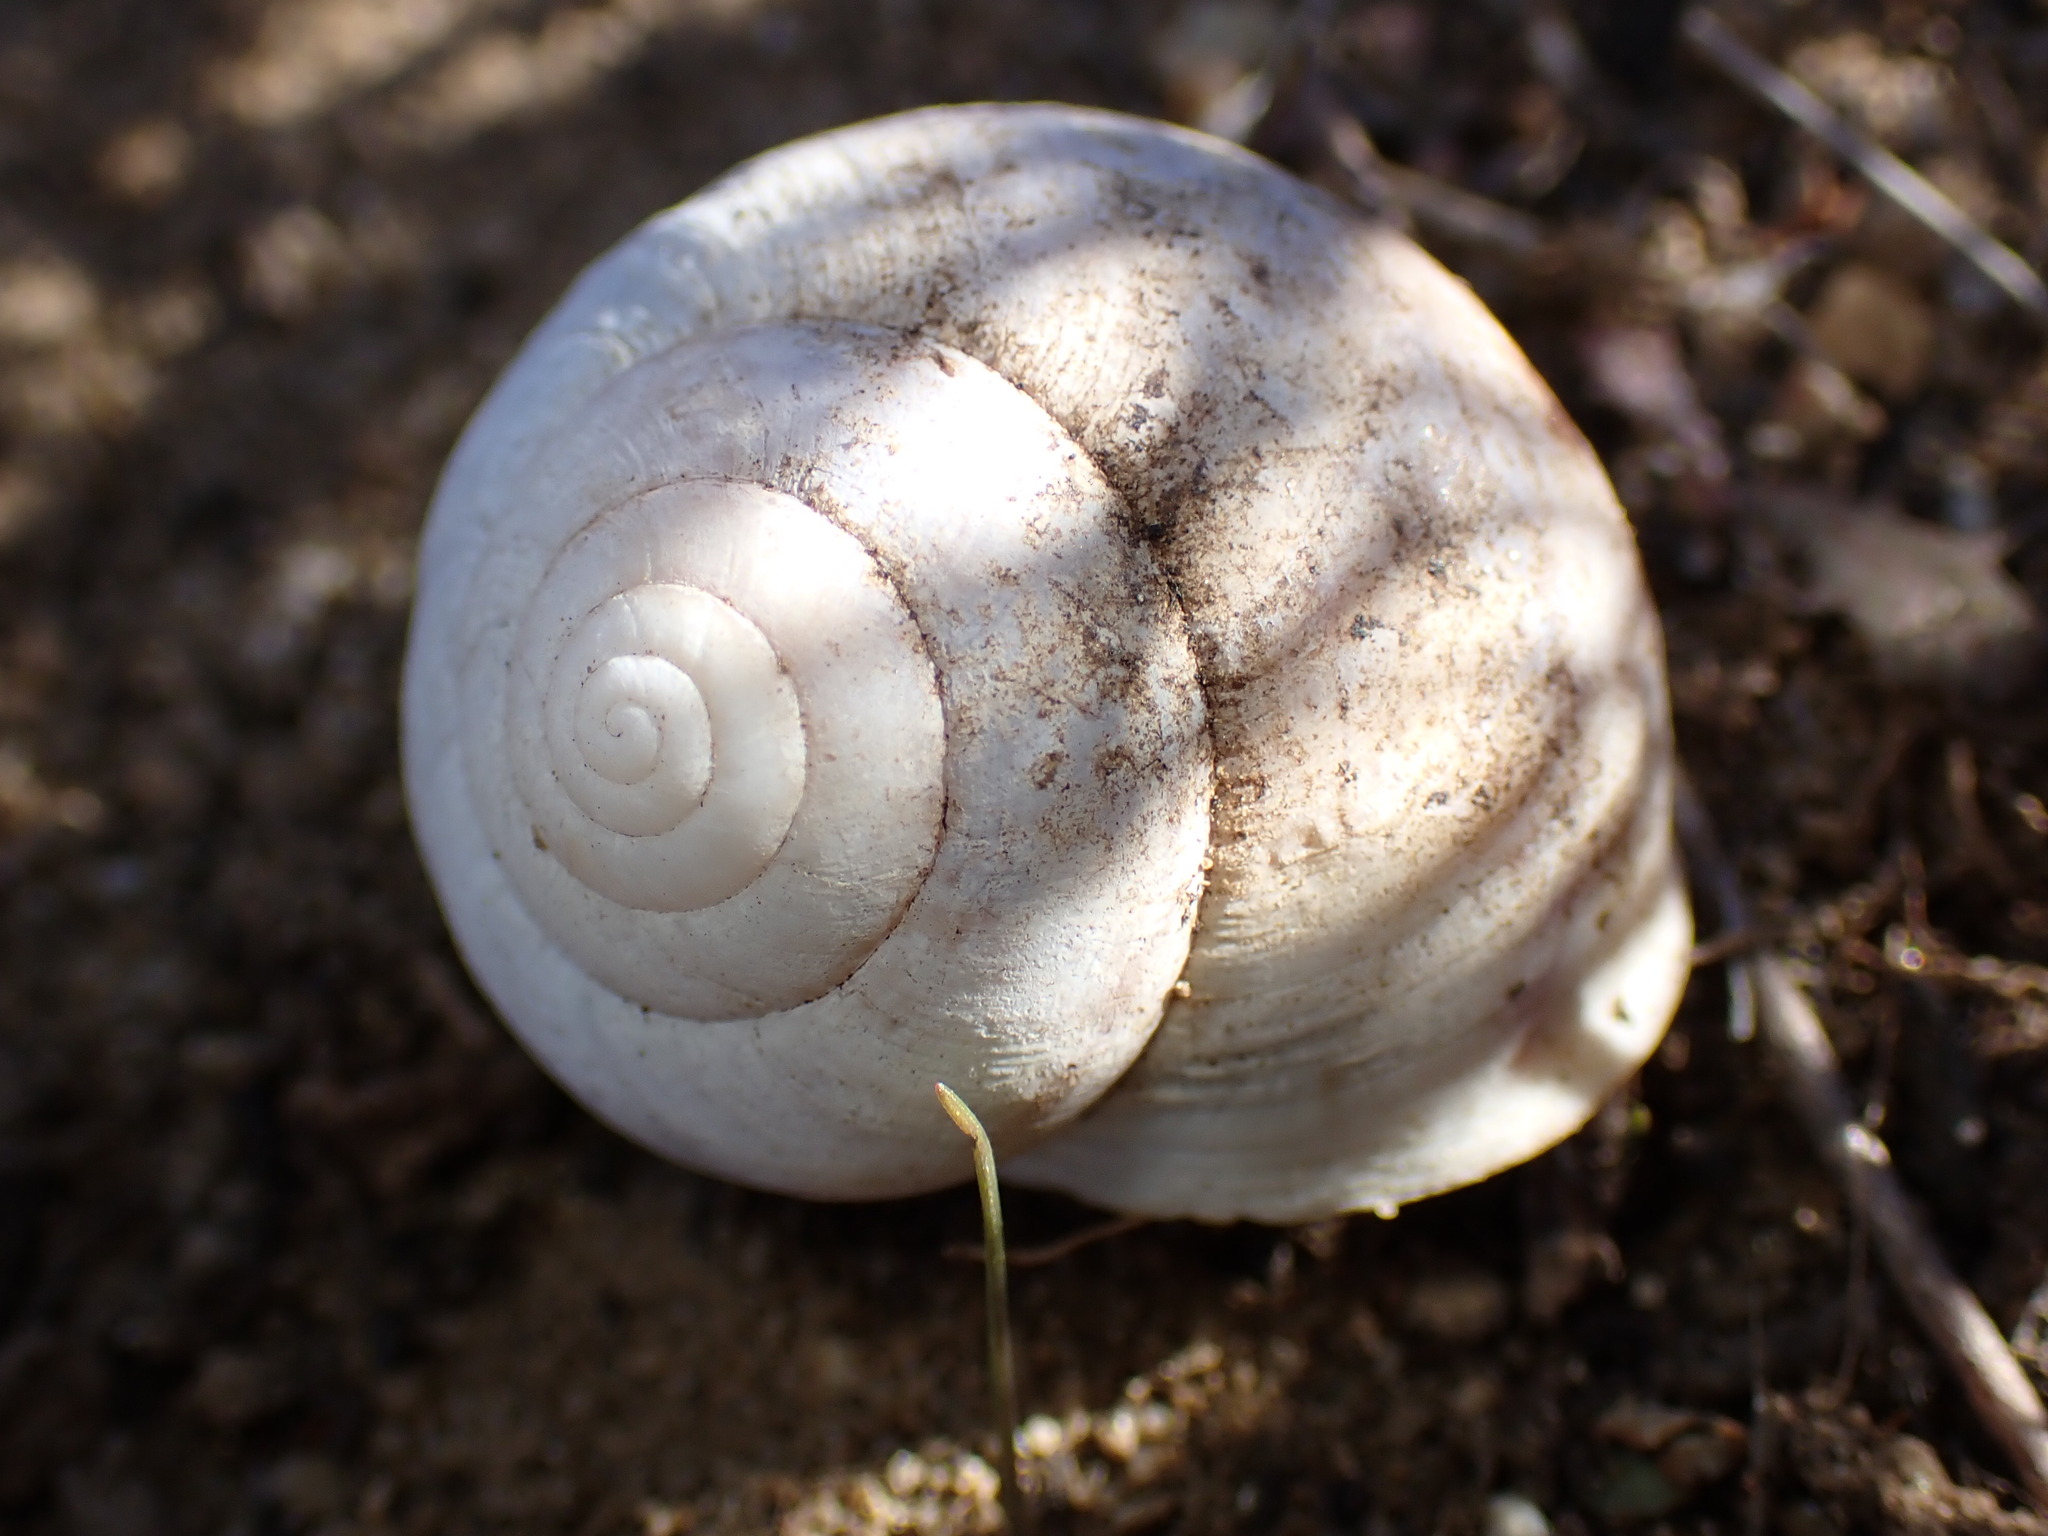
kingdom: Animalia
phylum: Mollusca
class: Gastropoda
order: Stylommatophora
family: Xanthonychidae
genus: Xerarionta
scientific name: Xerarionta stearnsiana
